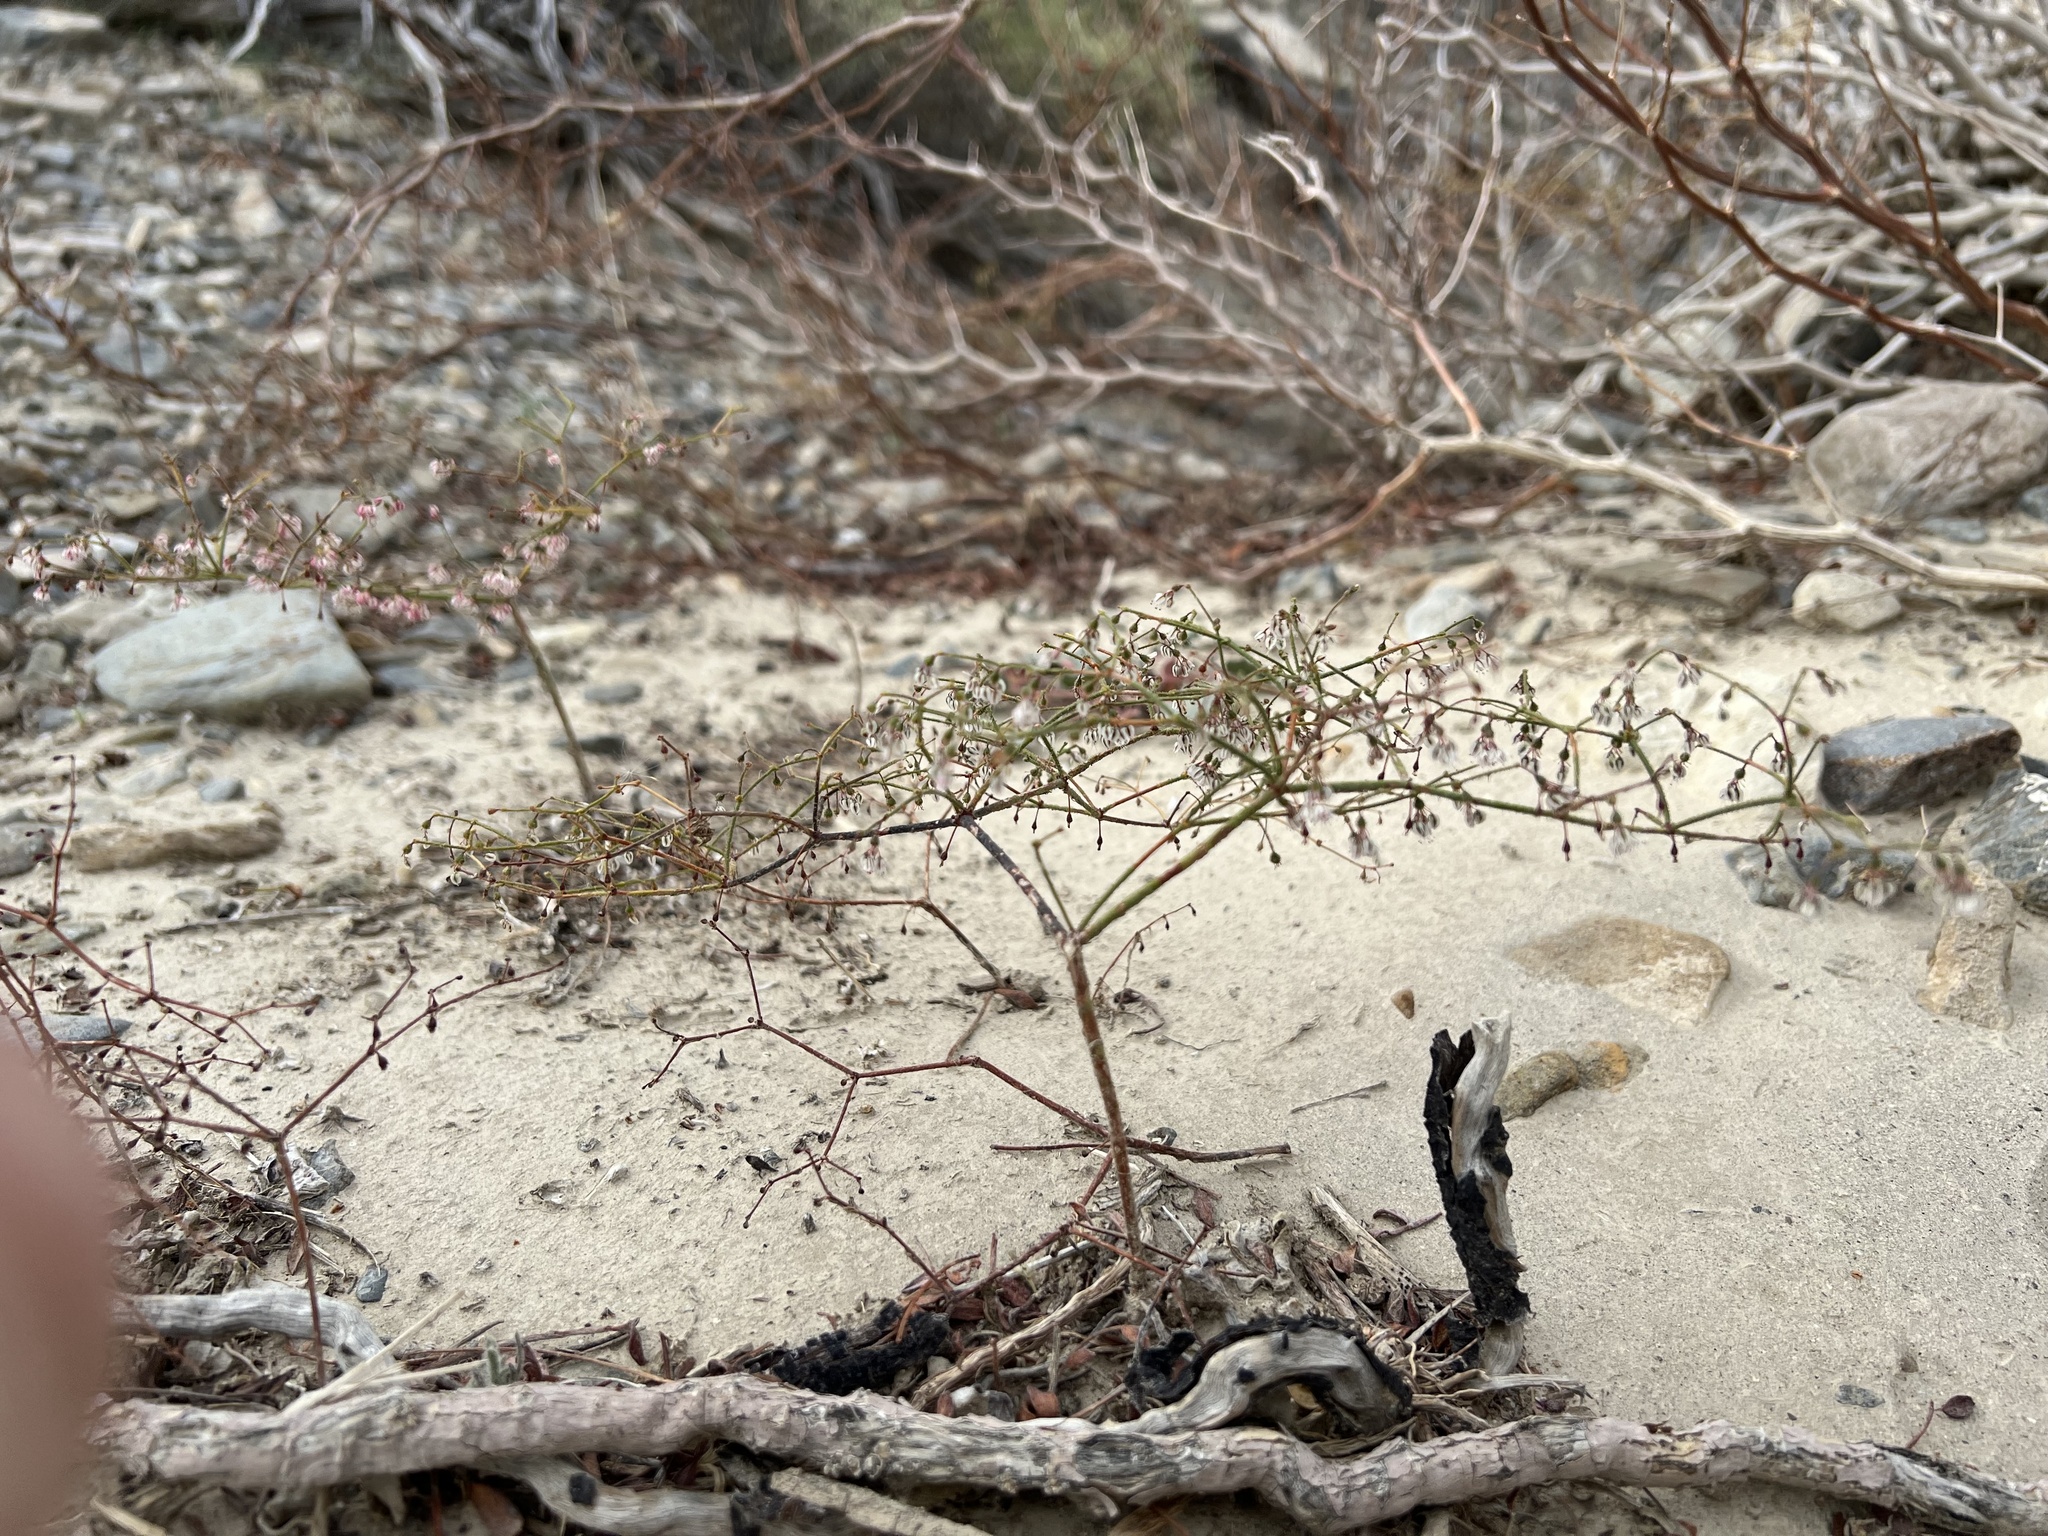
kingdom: Plantae
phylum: Tracheophyta
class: Magnoliopsida
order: Caryophyllales
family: Polygonaceae
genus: Eriogonum
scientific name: Eriogonum brachypodum
